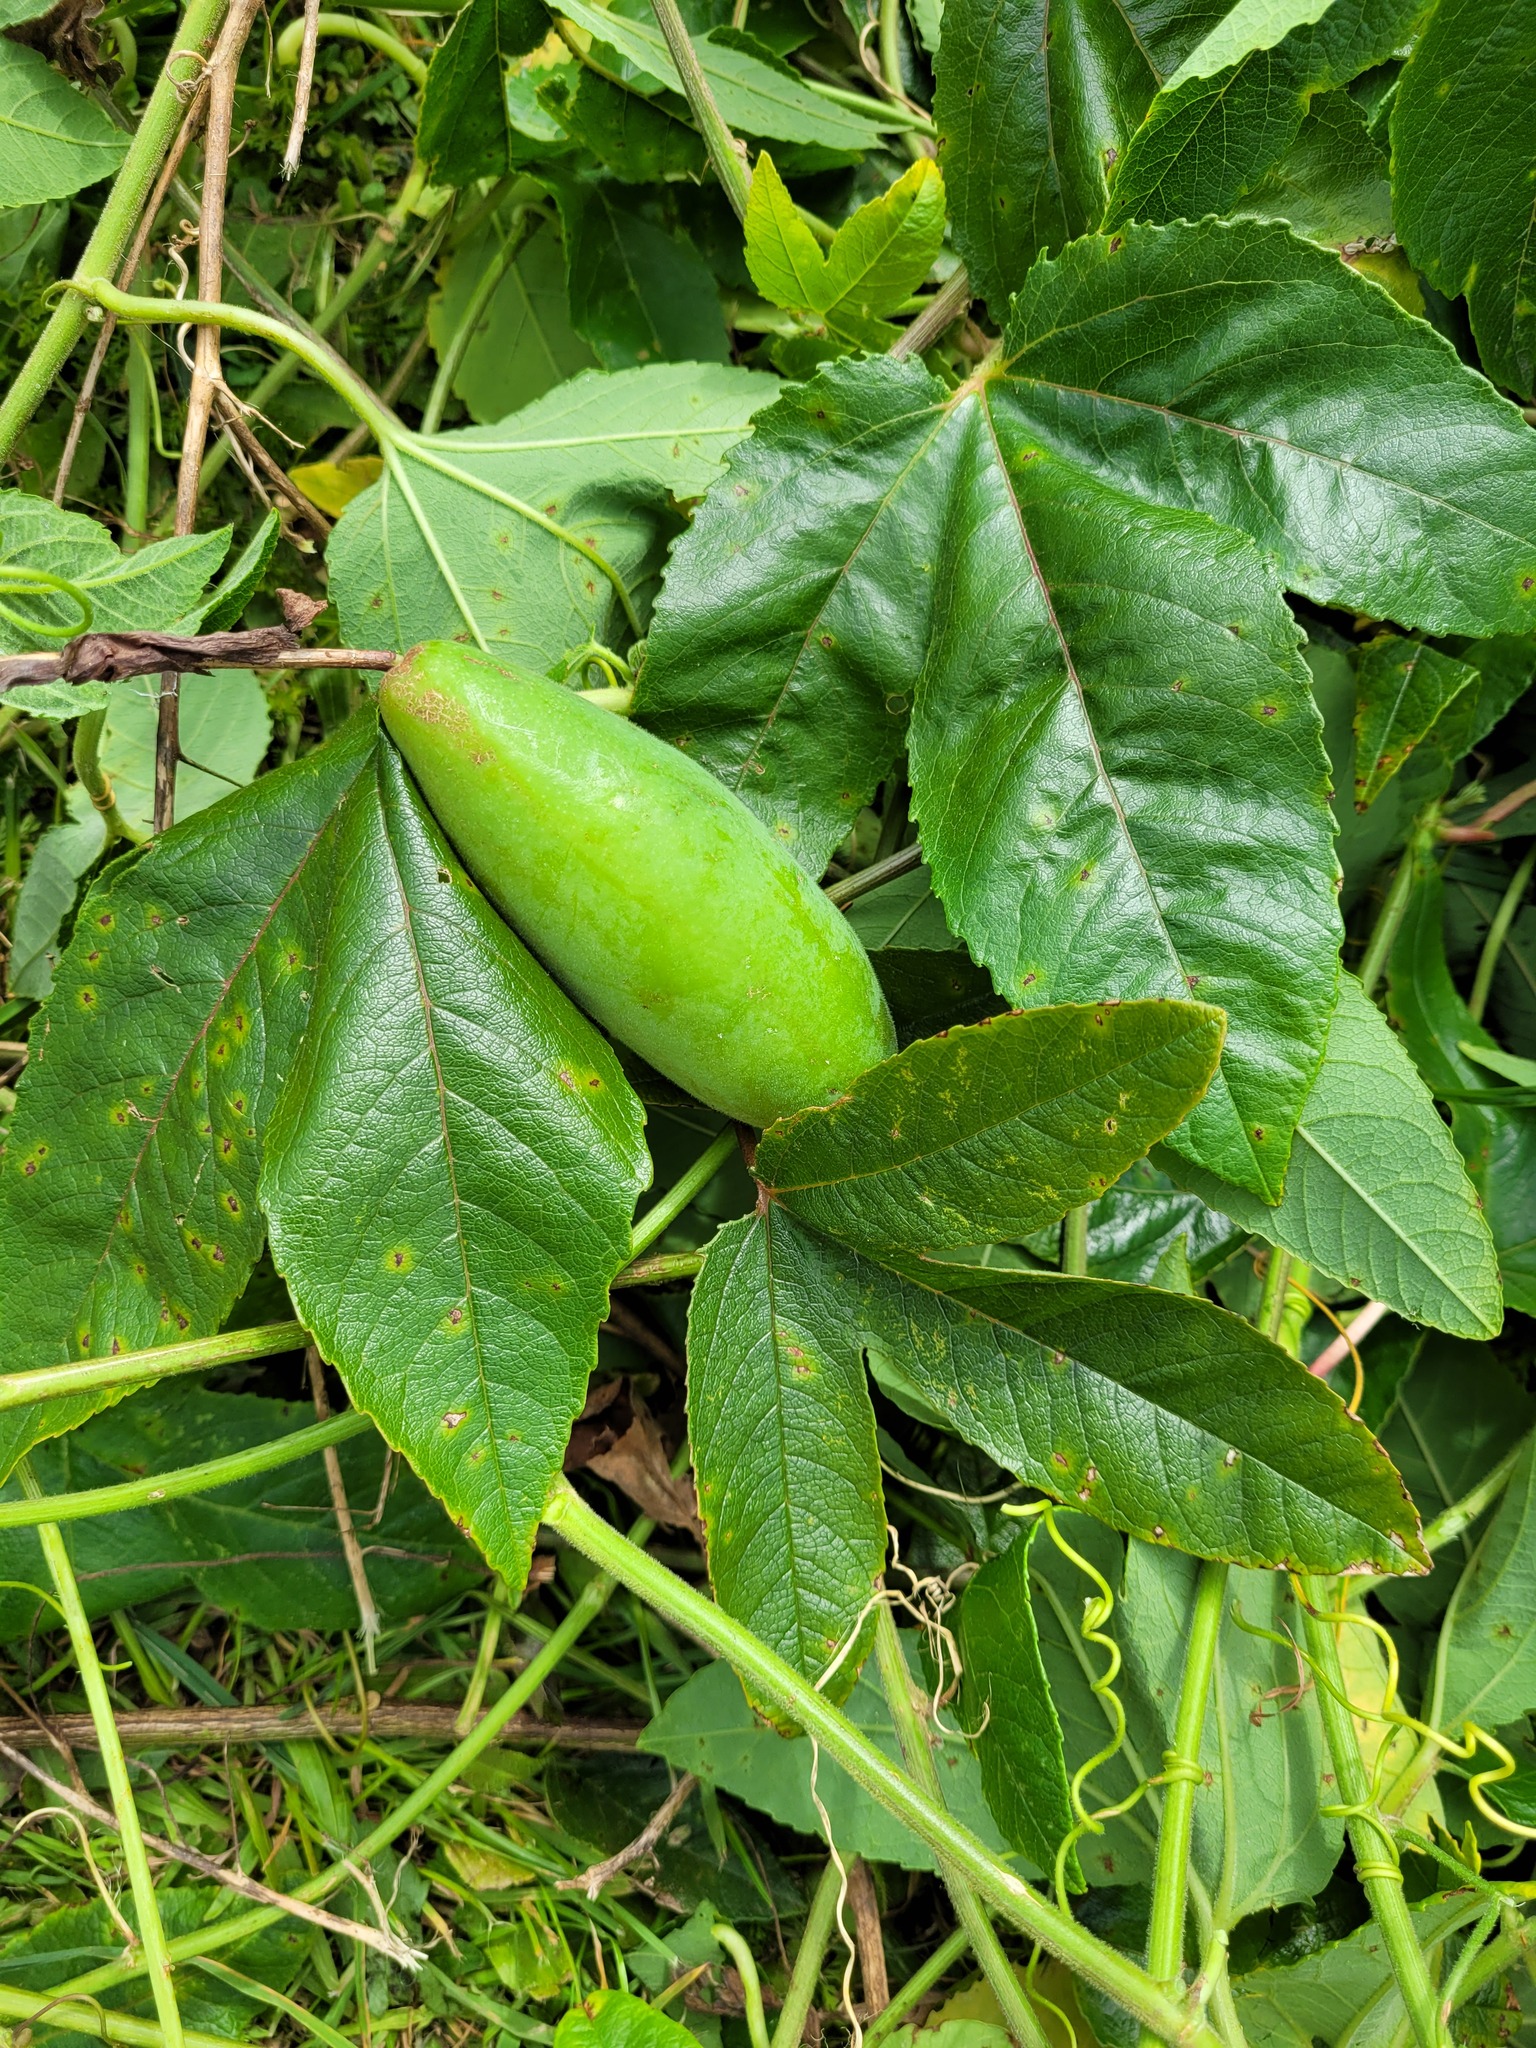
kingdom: Plantae
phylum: Tracheophyta
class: Magnoliopsida
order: Malpighiales
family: Passifloraceae
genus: Passiflora
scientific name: Passiflora tarminiana
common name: Banana poka
